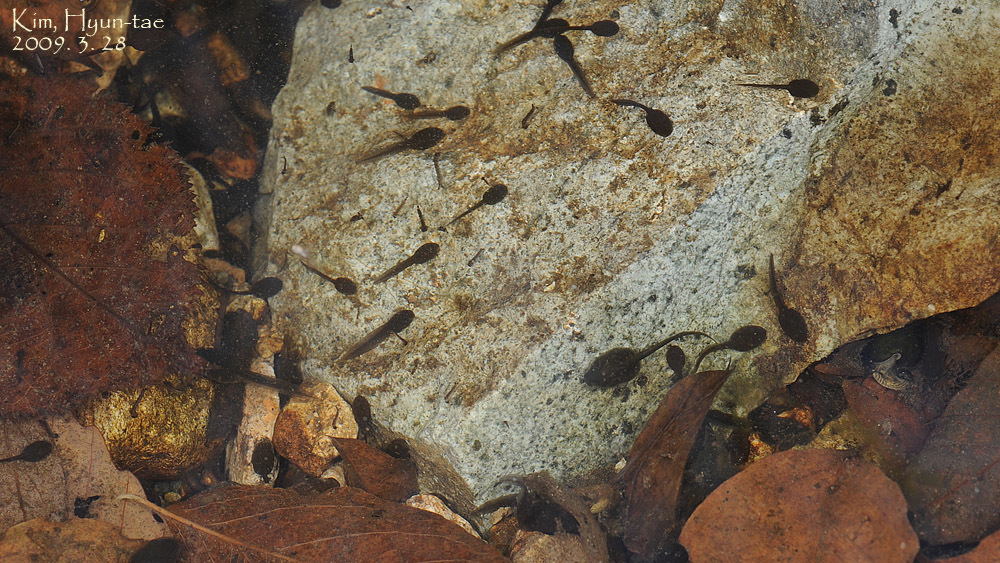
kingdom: Animalia
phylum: Chordata
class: Amphibia
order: Anura
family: Ranidae
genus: Rana
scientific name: Rana huanrenensis
